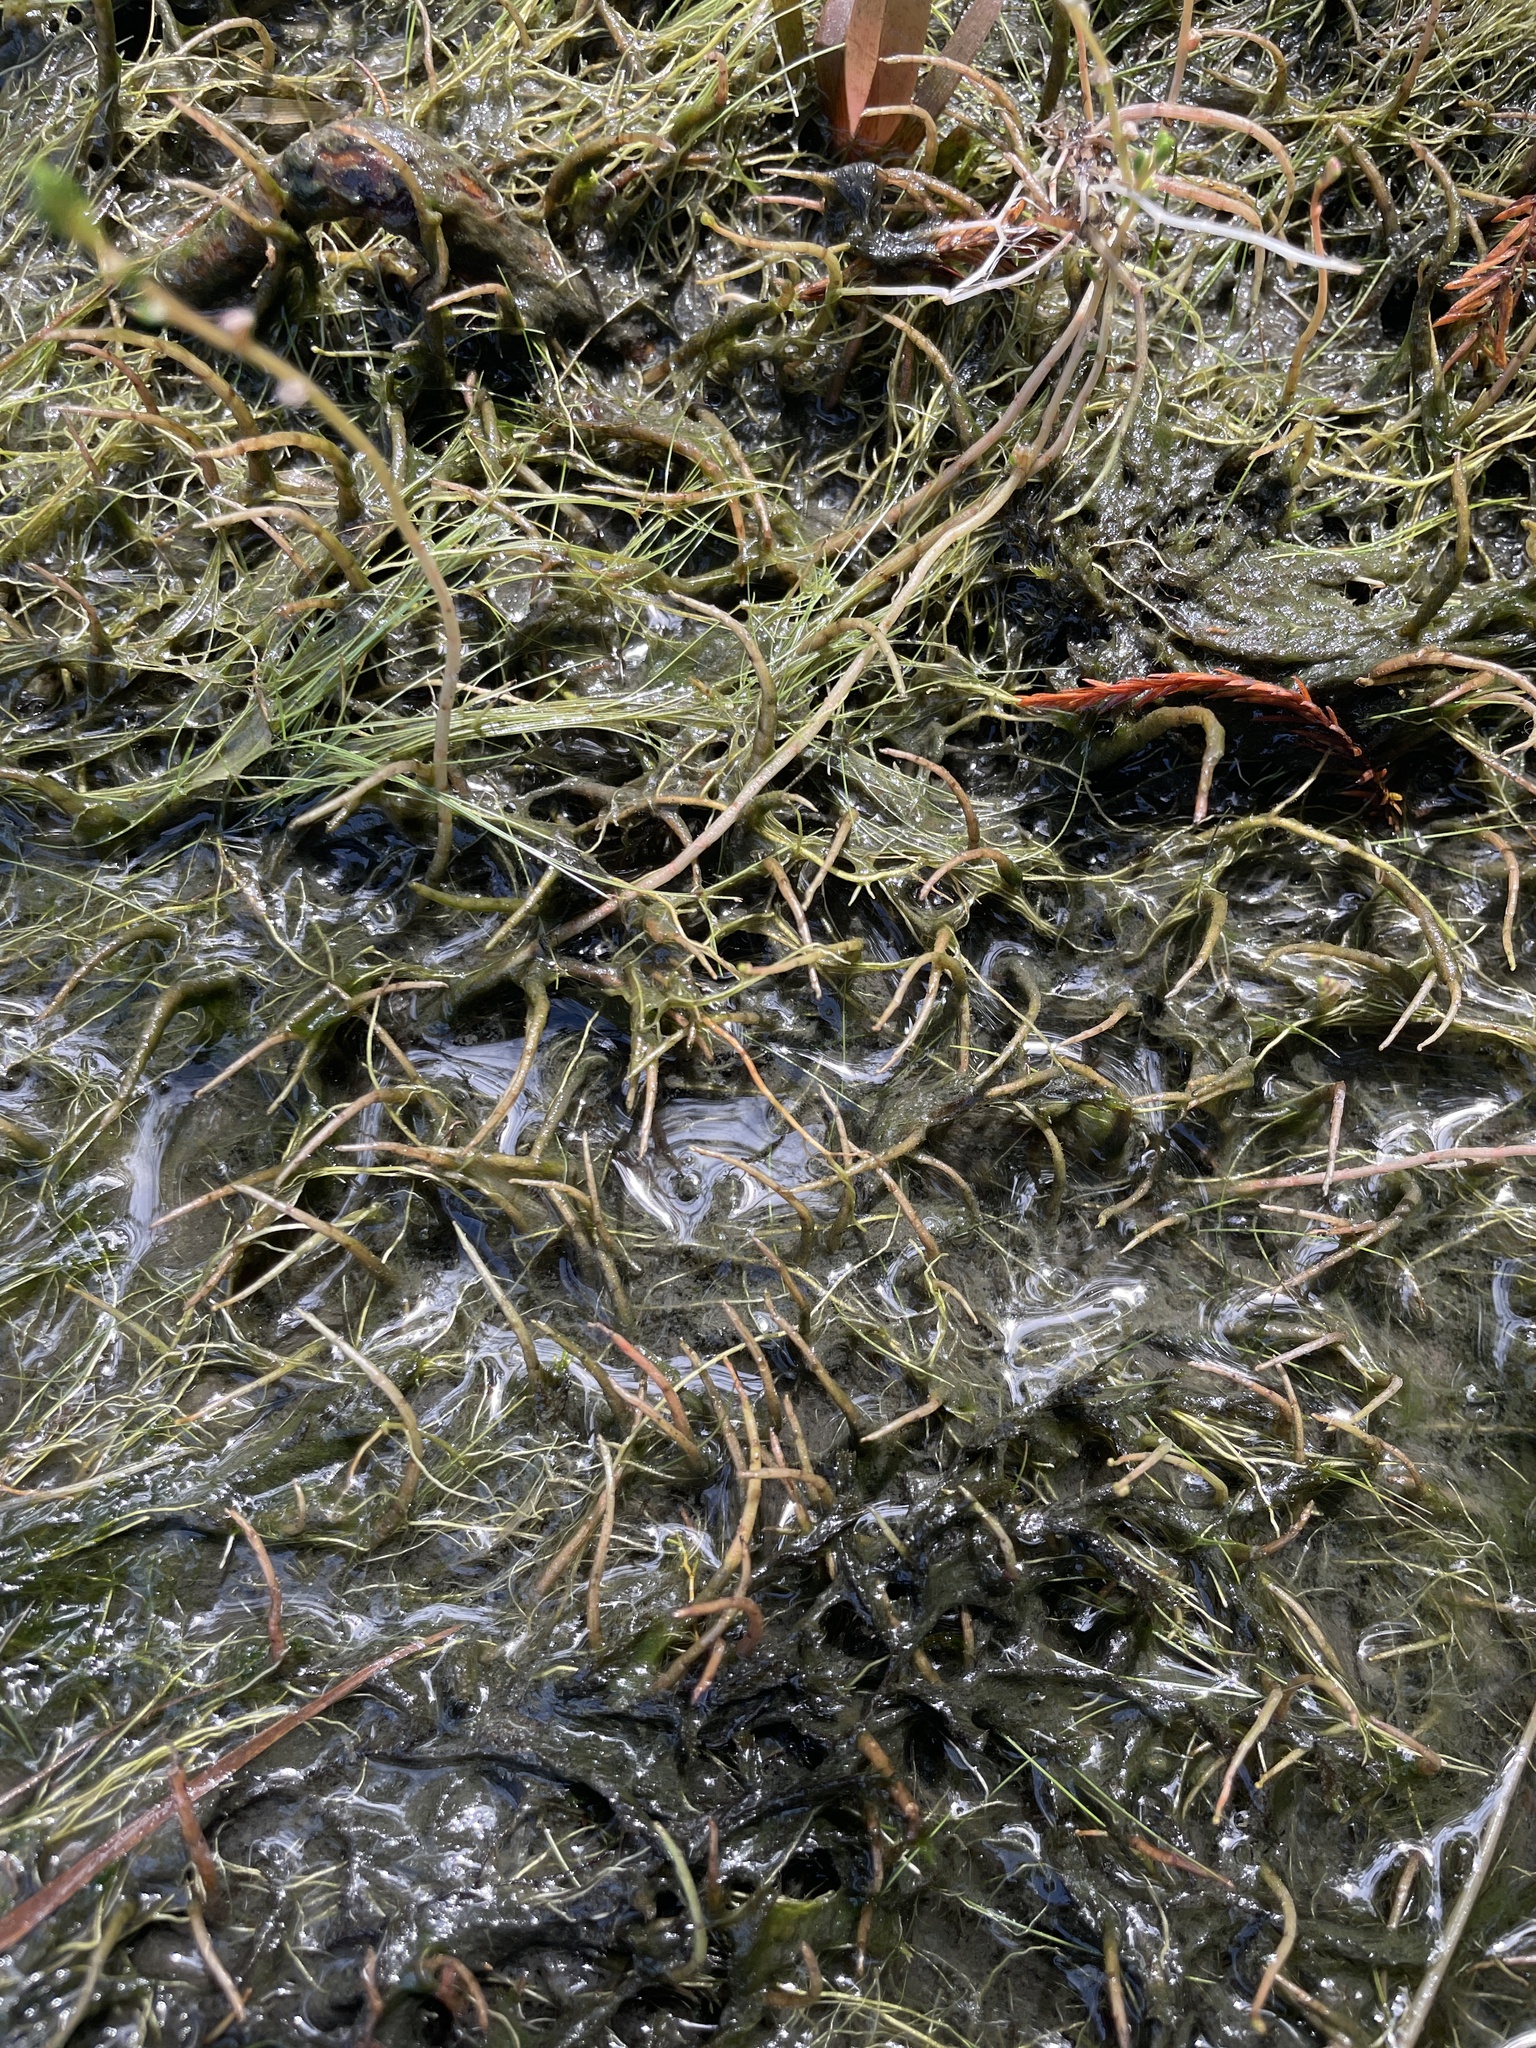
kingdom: Plantae
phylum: Tracheophyta
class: Magnoliopsida
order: Saxifragales
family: Haloragaceae
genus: Myriophyllum
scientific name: Myriophyllum tenellum
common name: Slender water-milfoil
